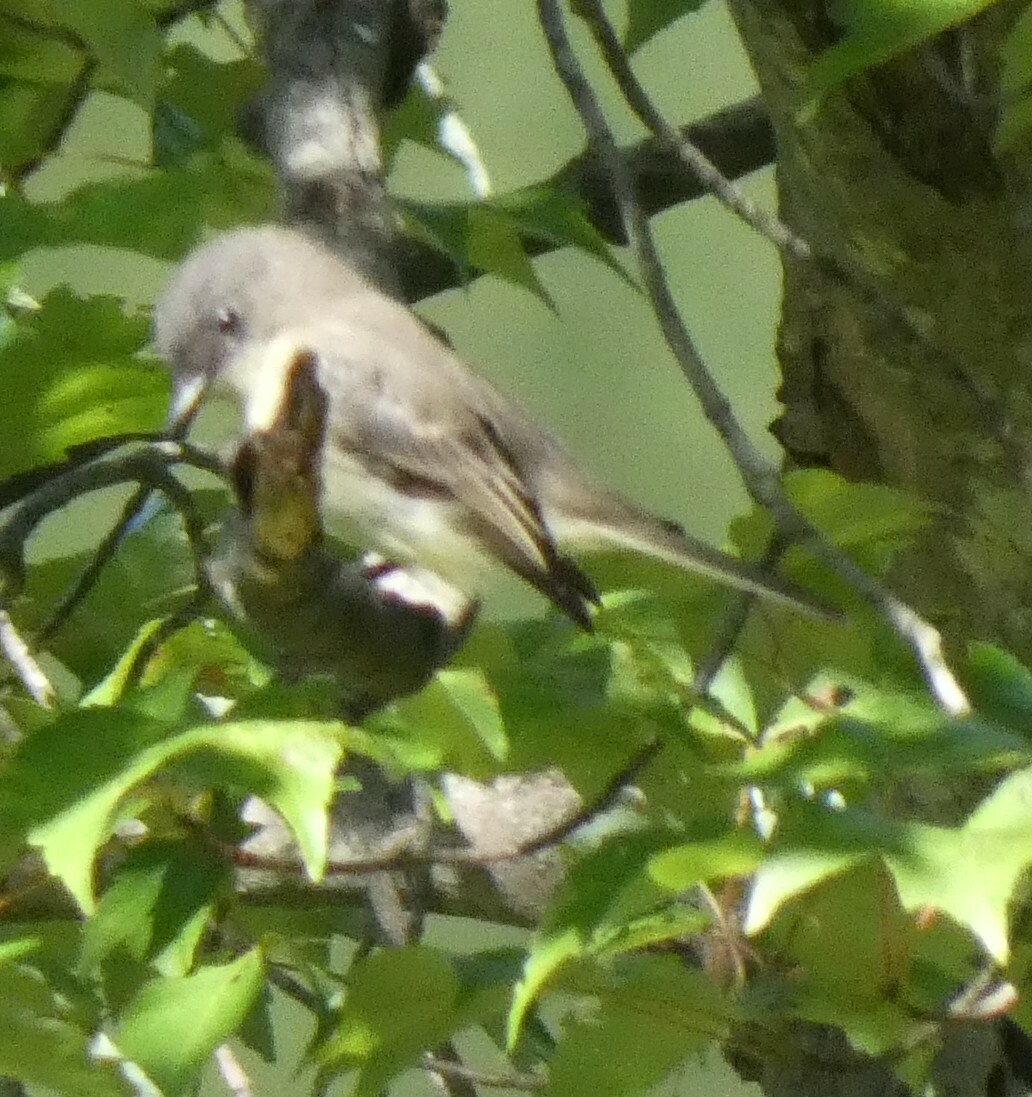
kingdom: Animalia
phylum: Chordata
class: Aves
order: Passeriformes
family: Tyrannidae
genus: Sayornis
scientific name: Sayornis phoebe
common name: Eastern phoebe
